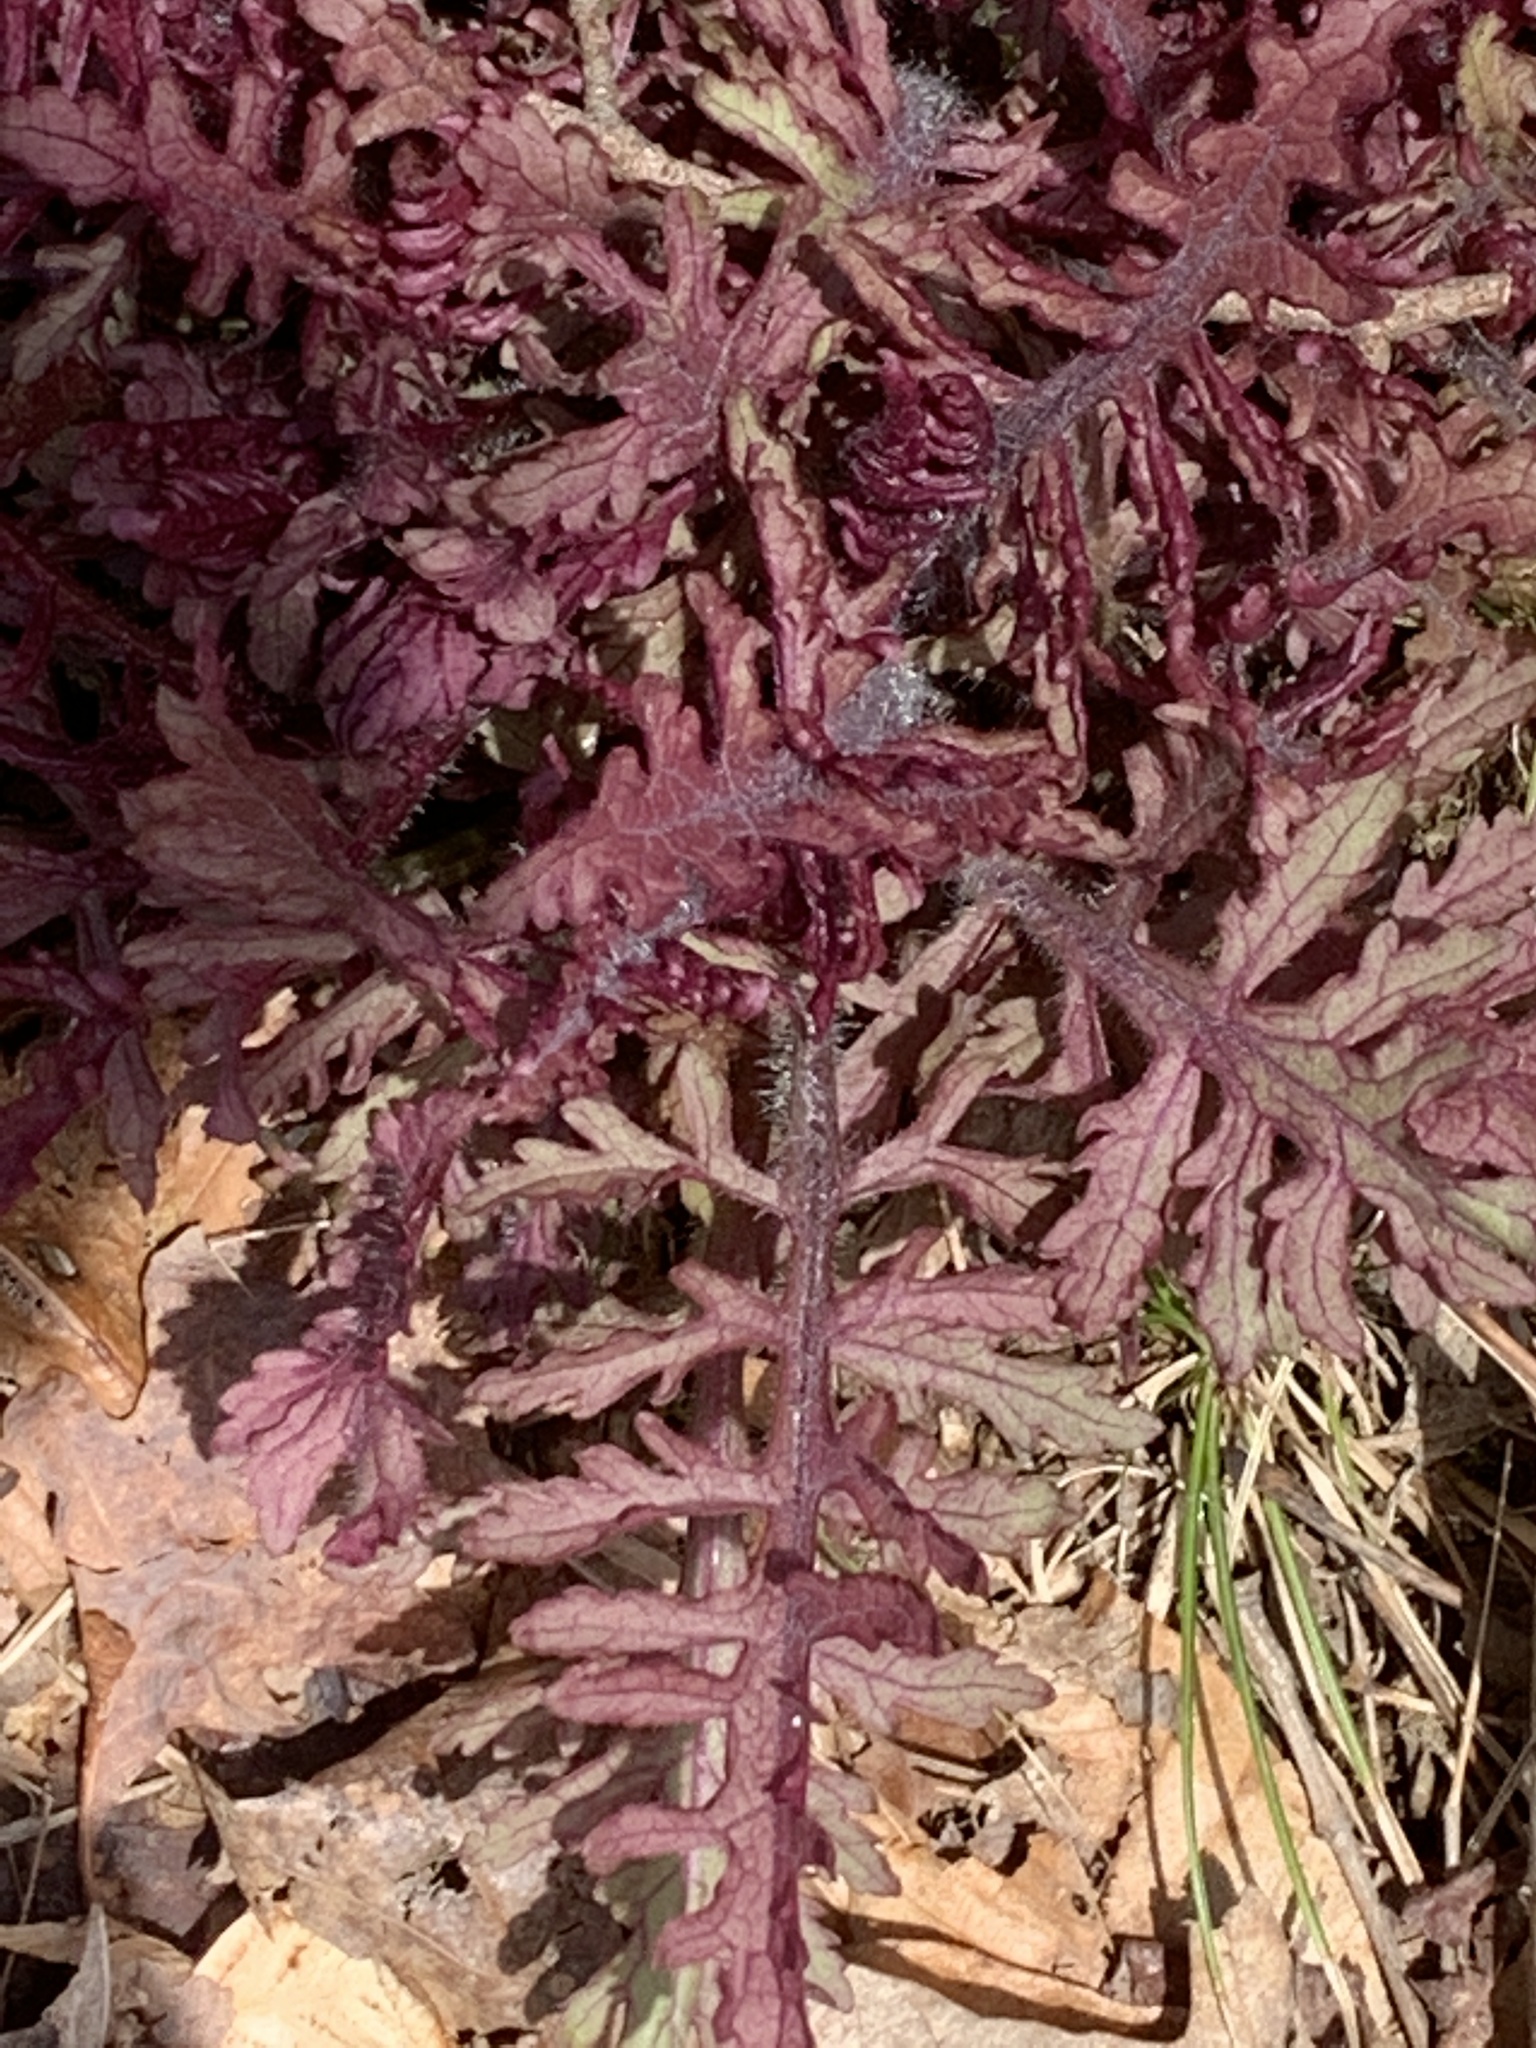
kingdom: Plantae
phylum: Tracheophyta
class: Magnoliopsida
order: Lamiales
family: Orobanchaceae
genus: Pedicularis
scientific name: Pedicularis canadensis
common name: Early lousewort
